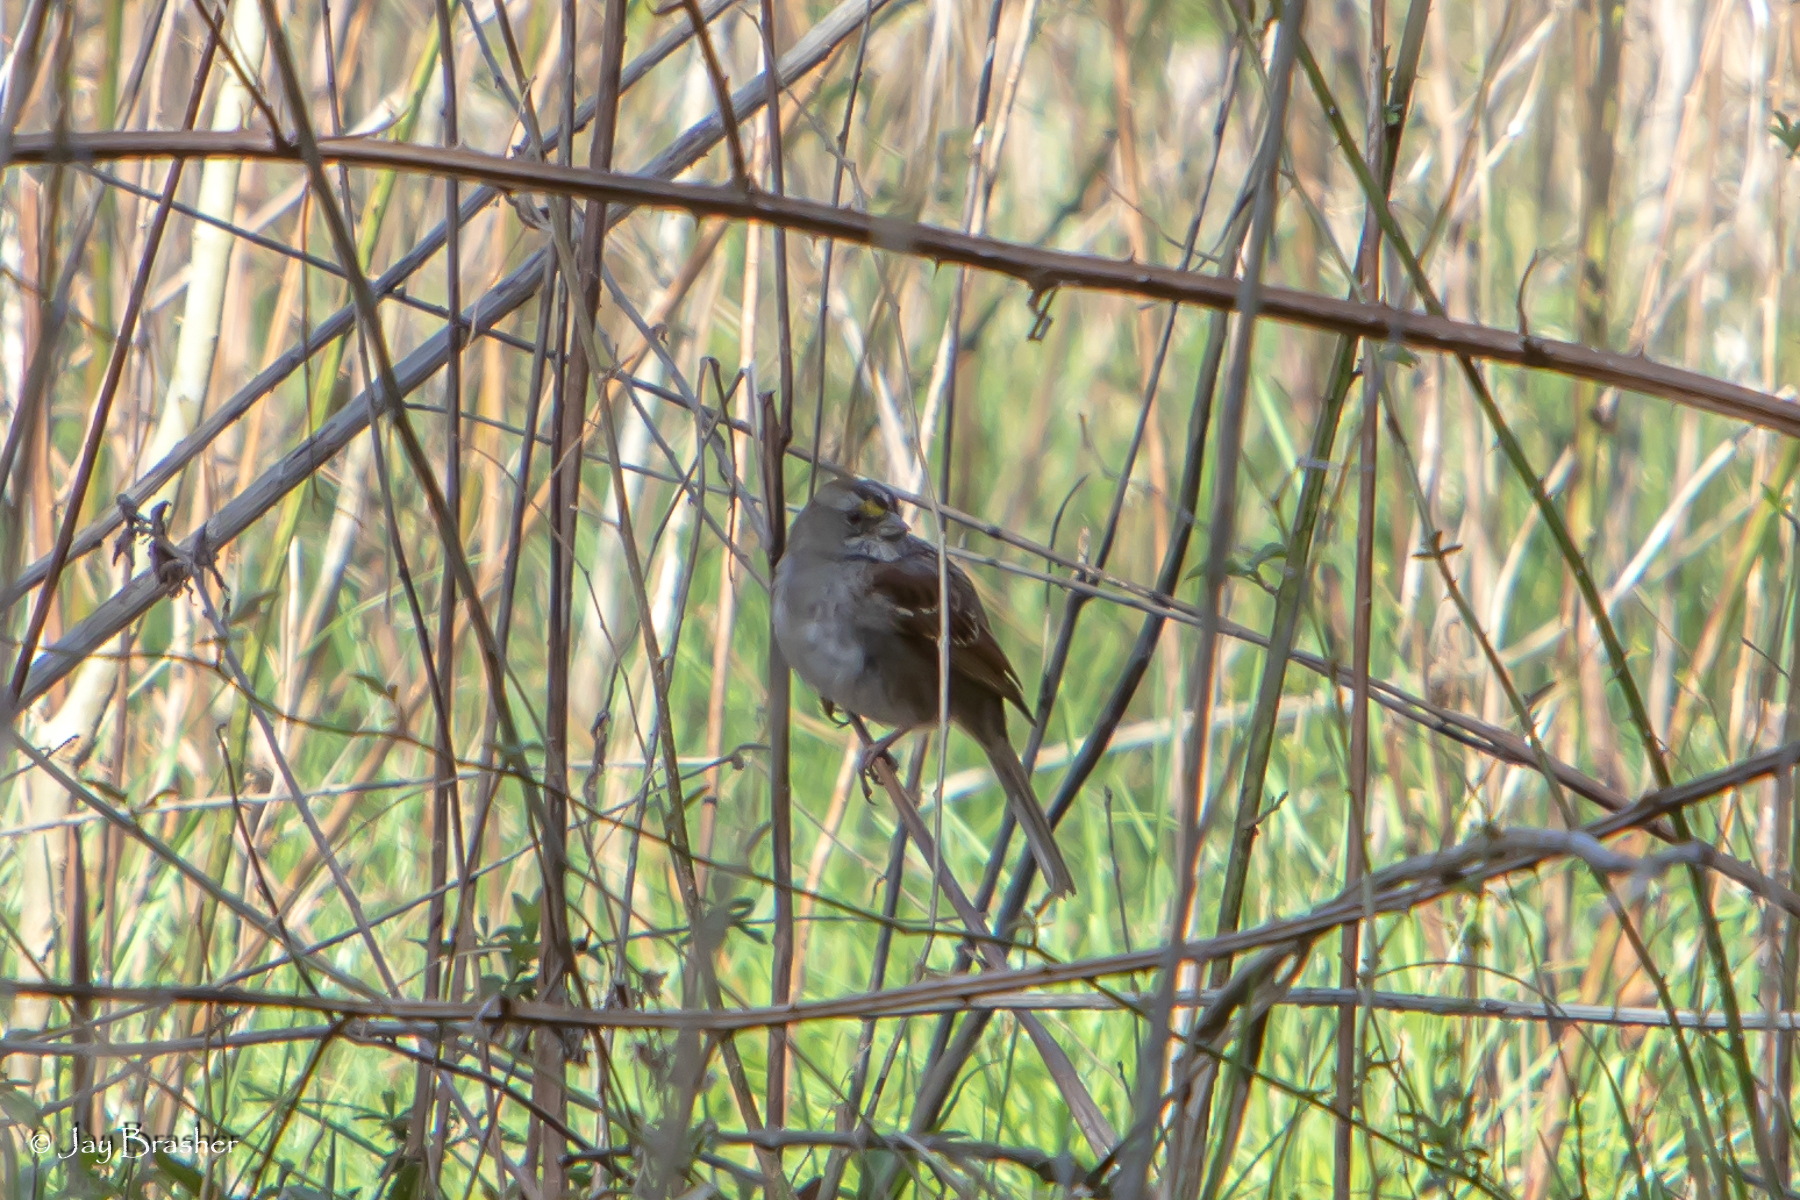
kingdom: Animalia
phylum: Chordata
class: Aves
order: Passeriformes
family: Passerellidae
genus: Zonotrichia
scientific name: Zonotrichia albicollis
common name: White-throated sparrow
